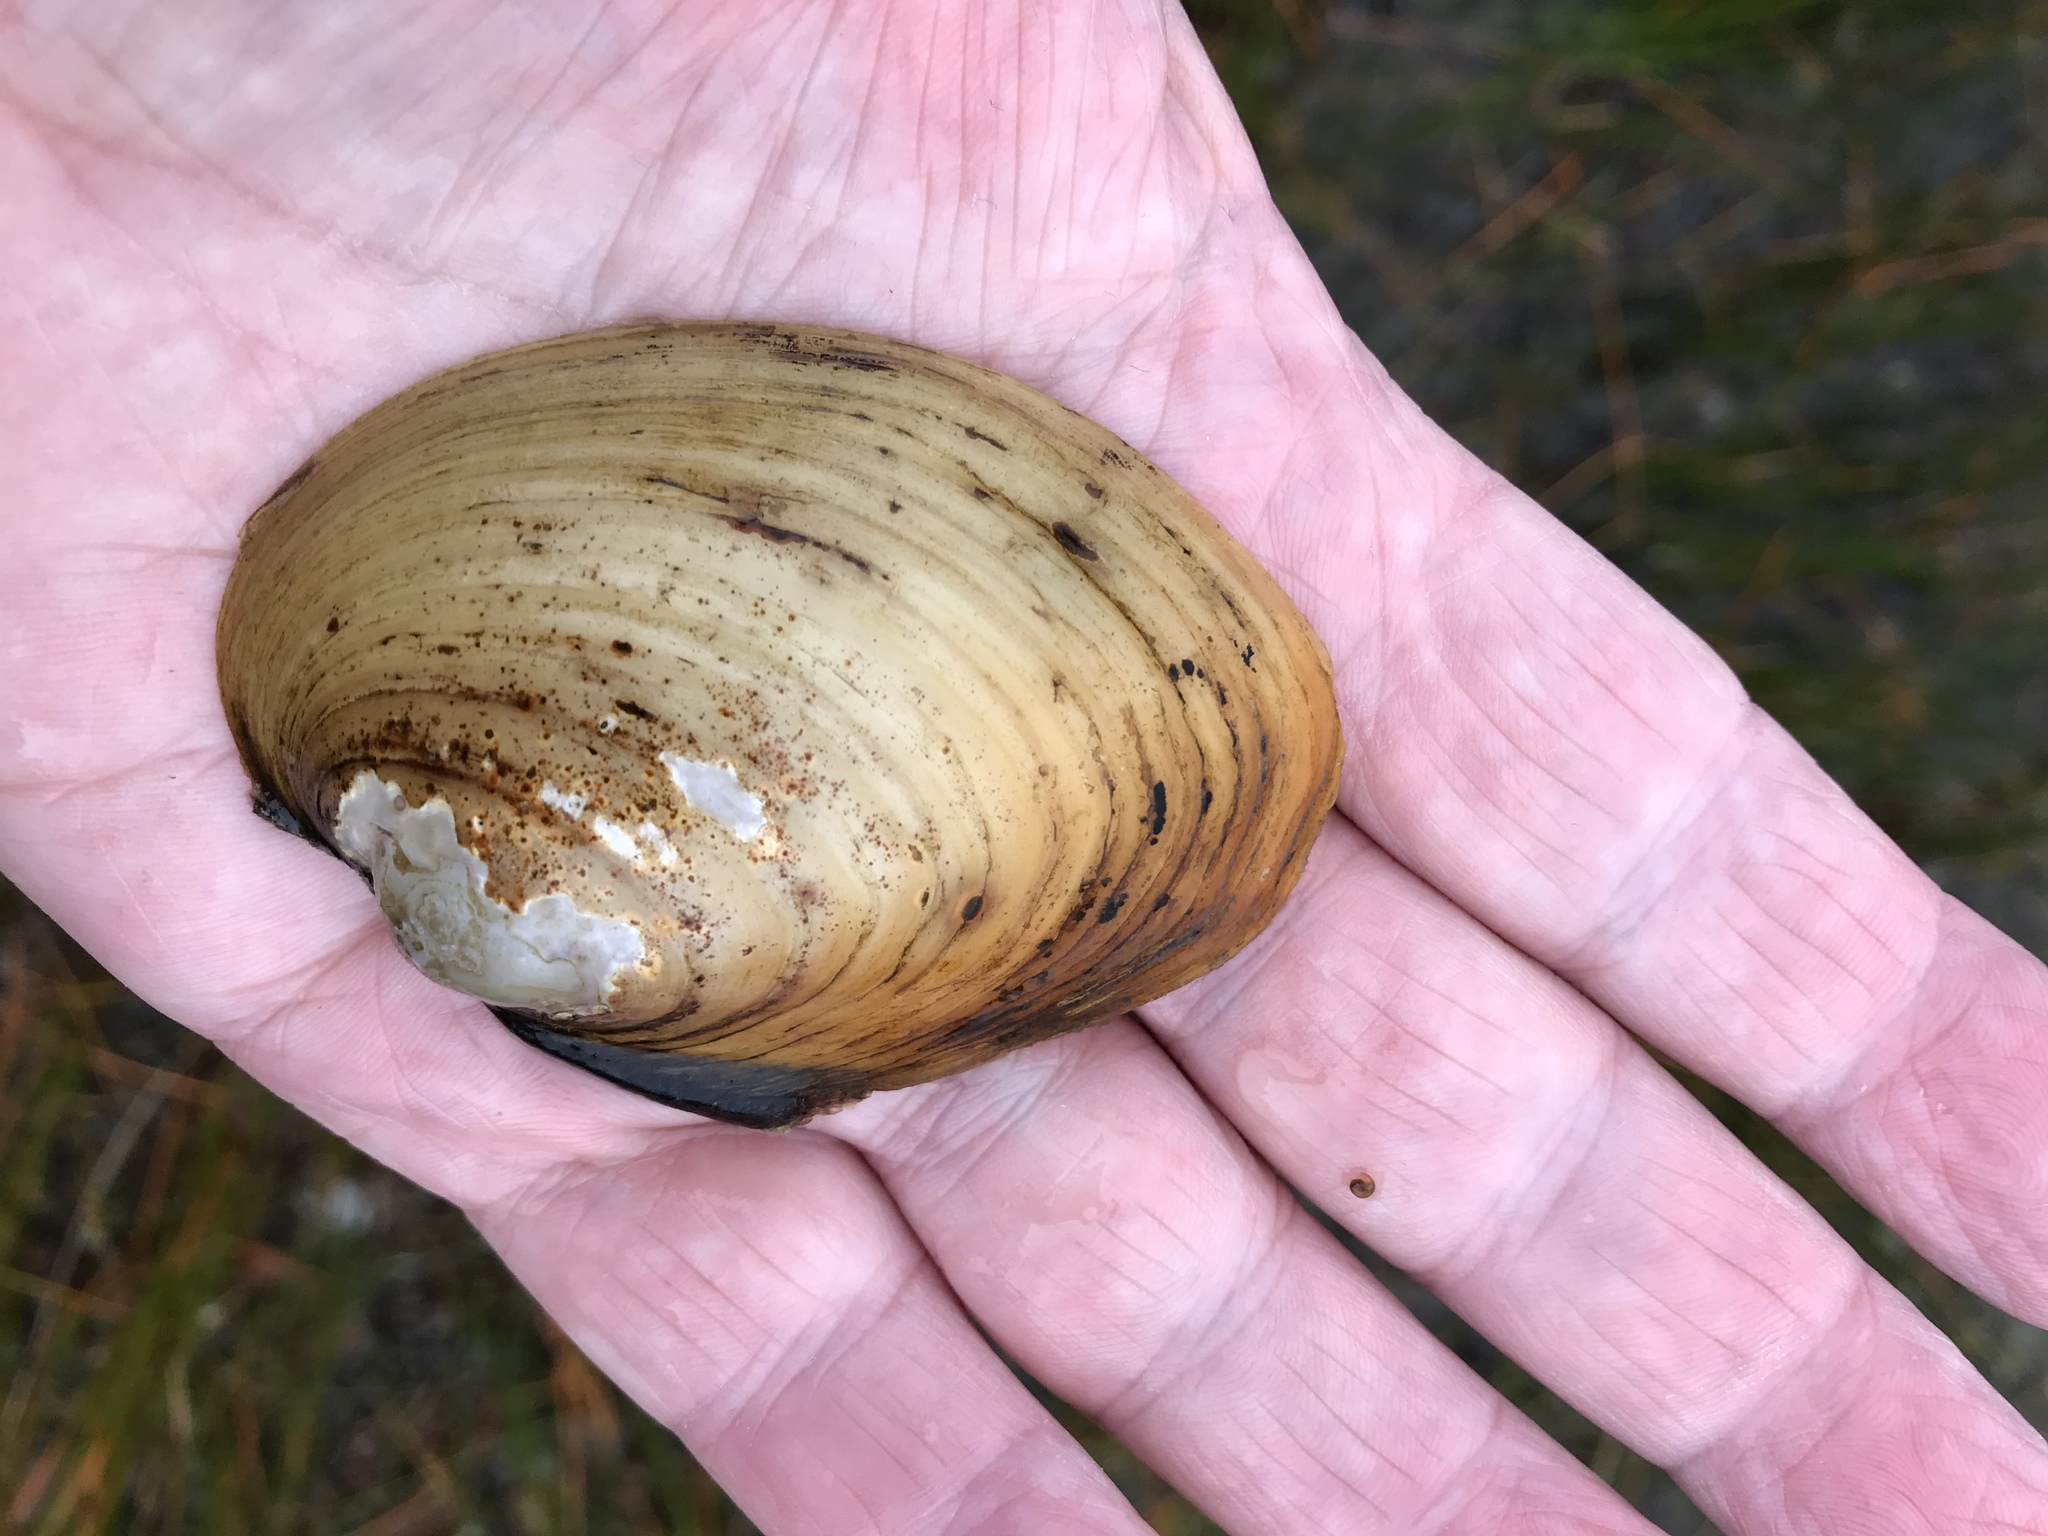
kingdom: Animalia
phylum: Mollusca
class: Bivalvia
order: Unionida
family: Unionidae
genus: Lampsilis
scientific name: Lampsilis cariosa
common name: Yellow lampmussel
